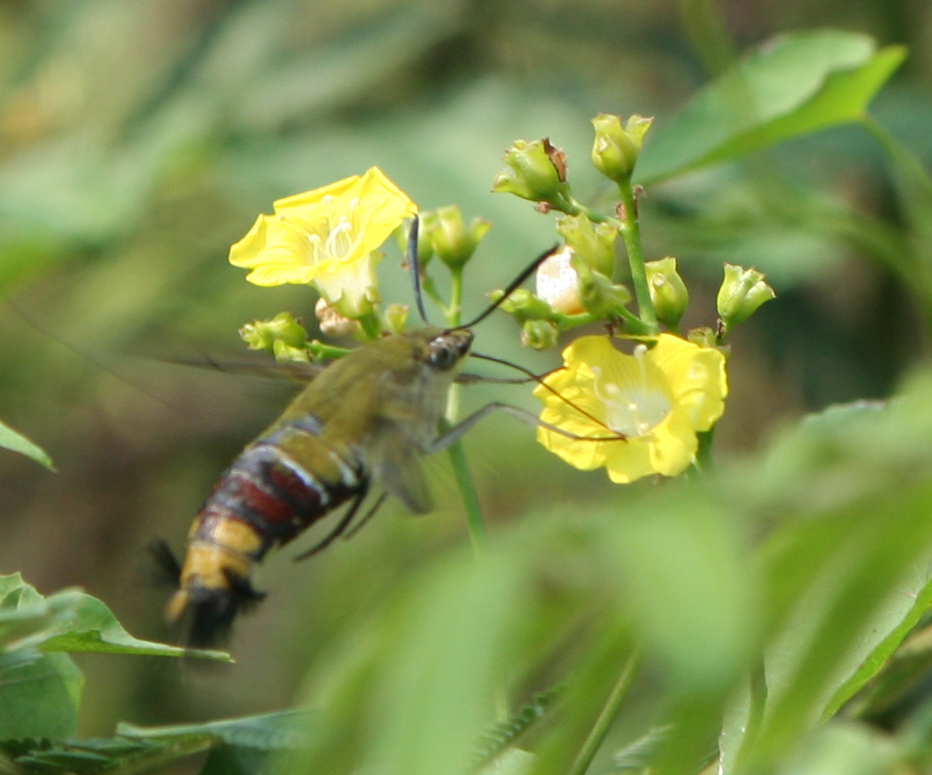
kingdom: Plantae
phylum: Tracheophyta
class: Magnoliopsida
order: Solanales
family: Convolvulaceae
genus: Merremia
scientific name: Merremia hederacea
